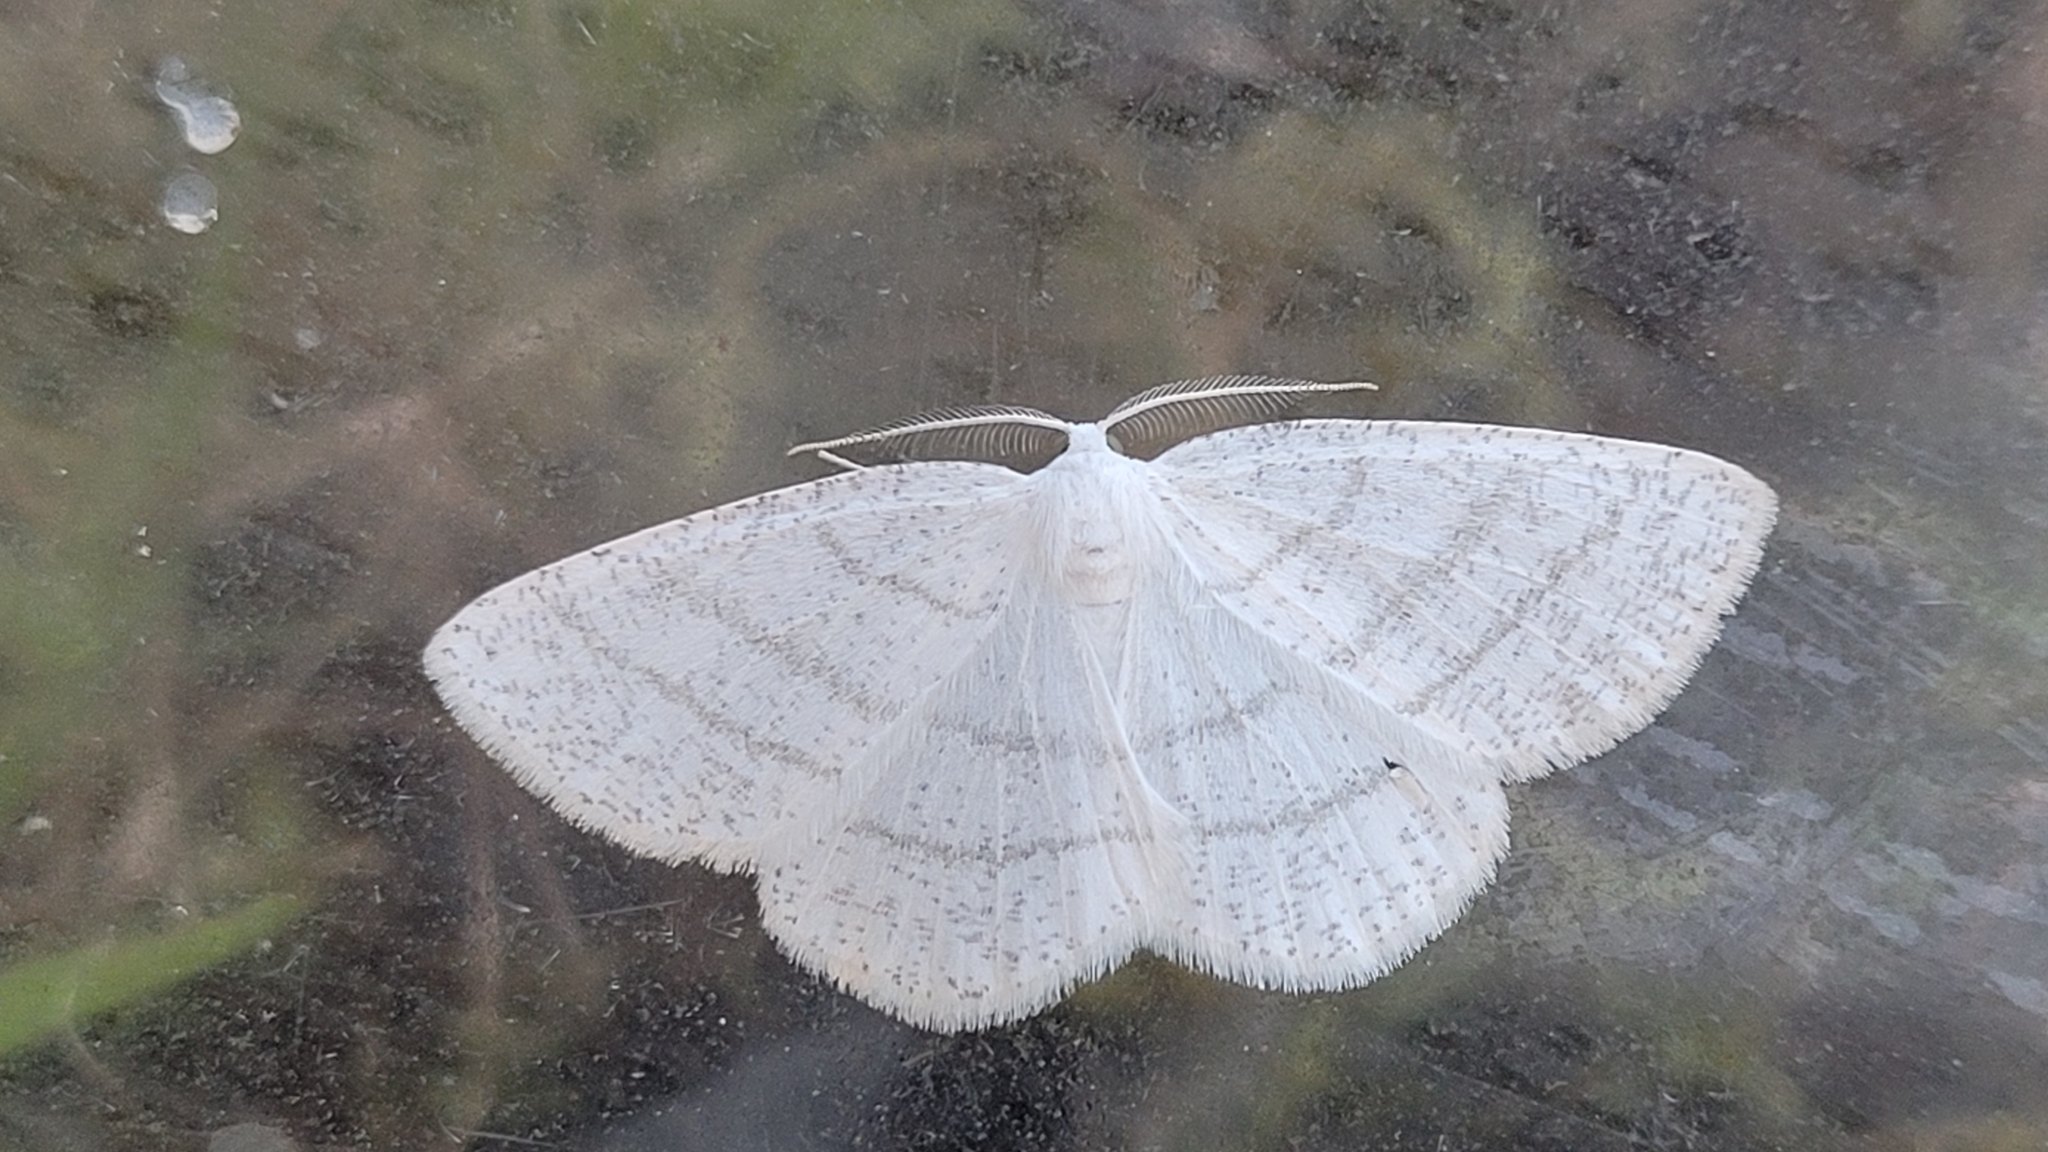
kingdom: Animalia
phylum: Arthropoda
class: Insecta
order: Lepidoptera
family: Geometridae
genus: Cabera
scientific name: Cabera pusaria
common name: Common white wave
